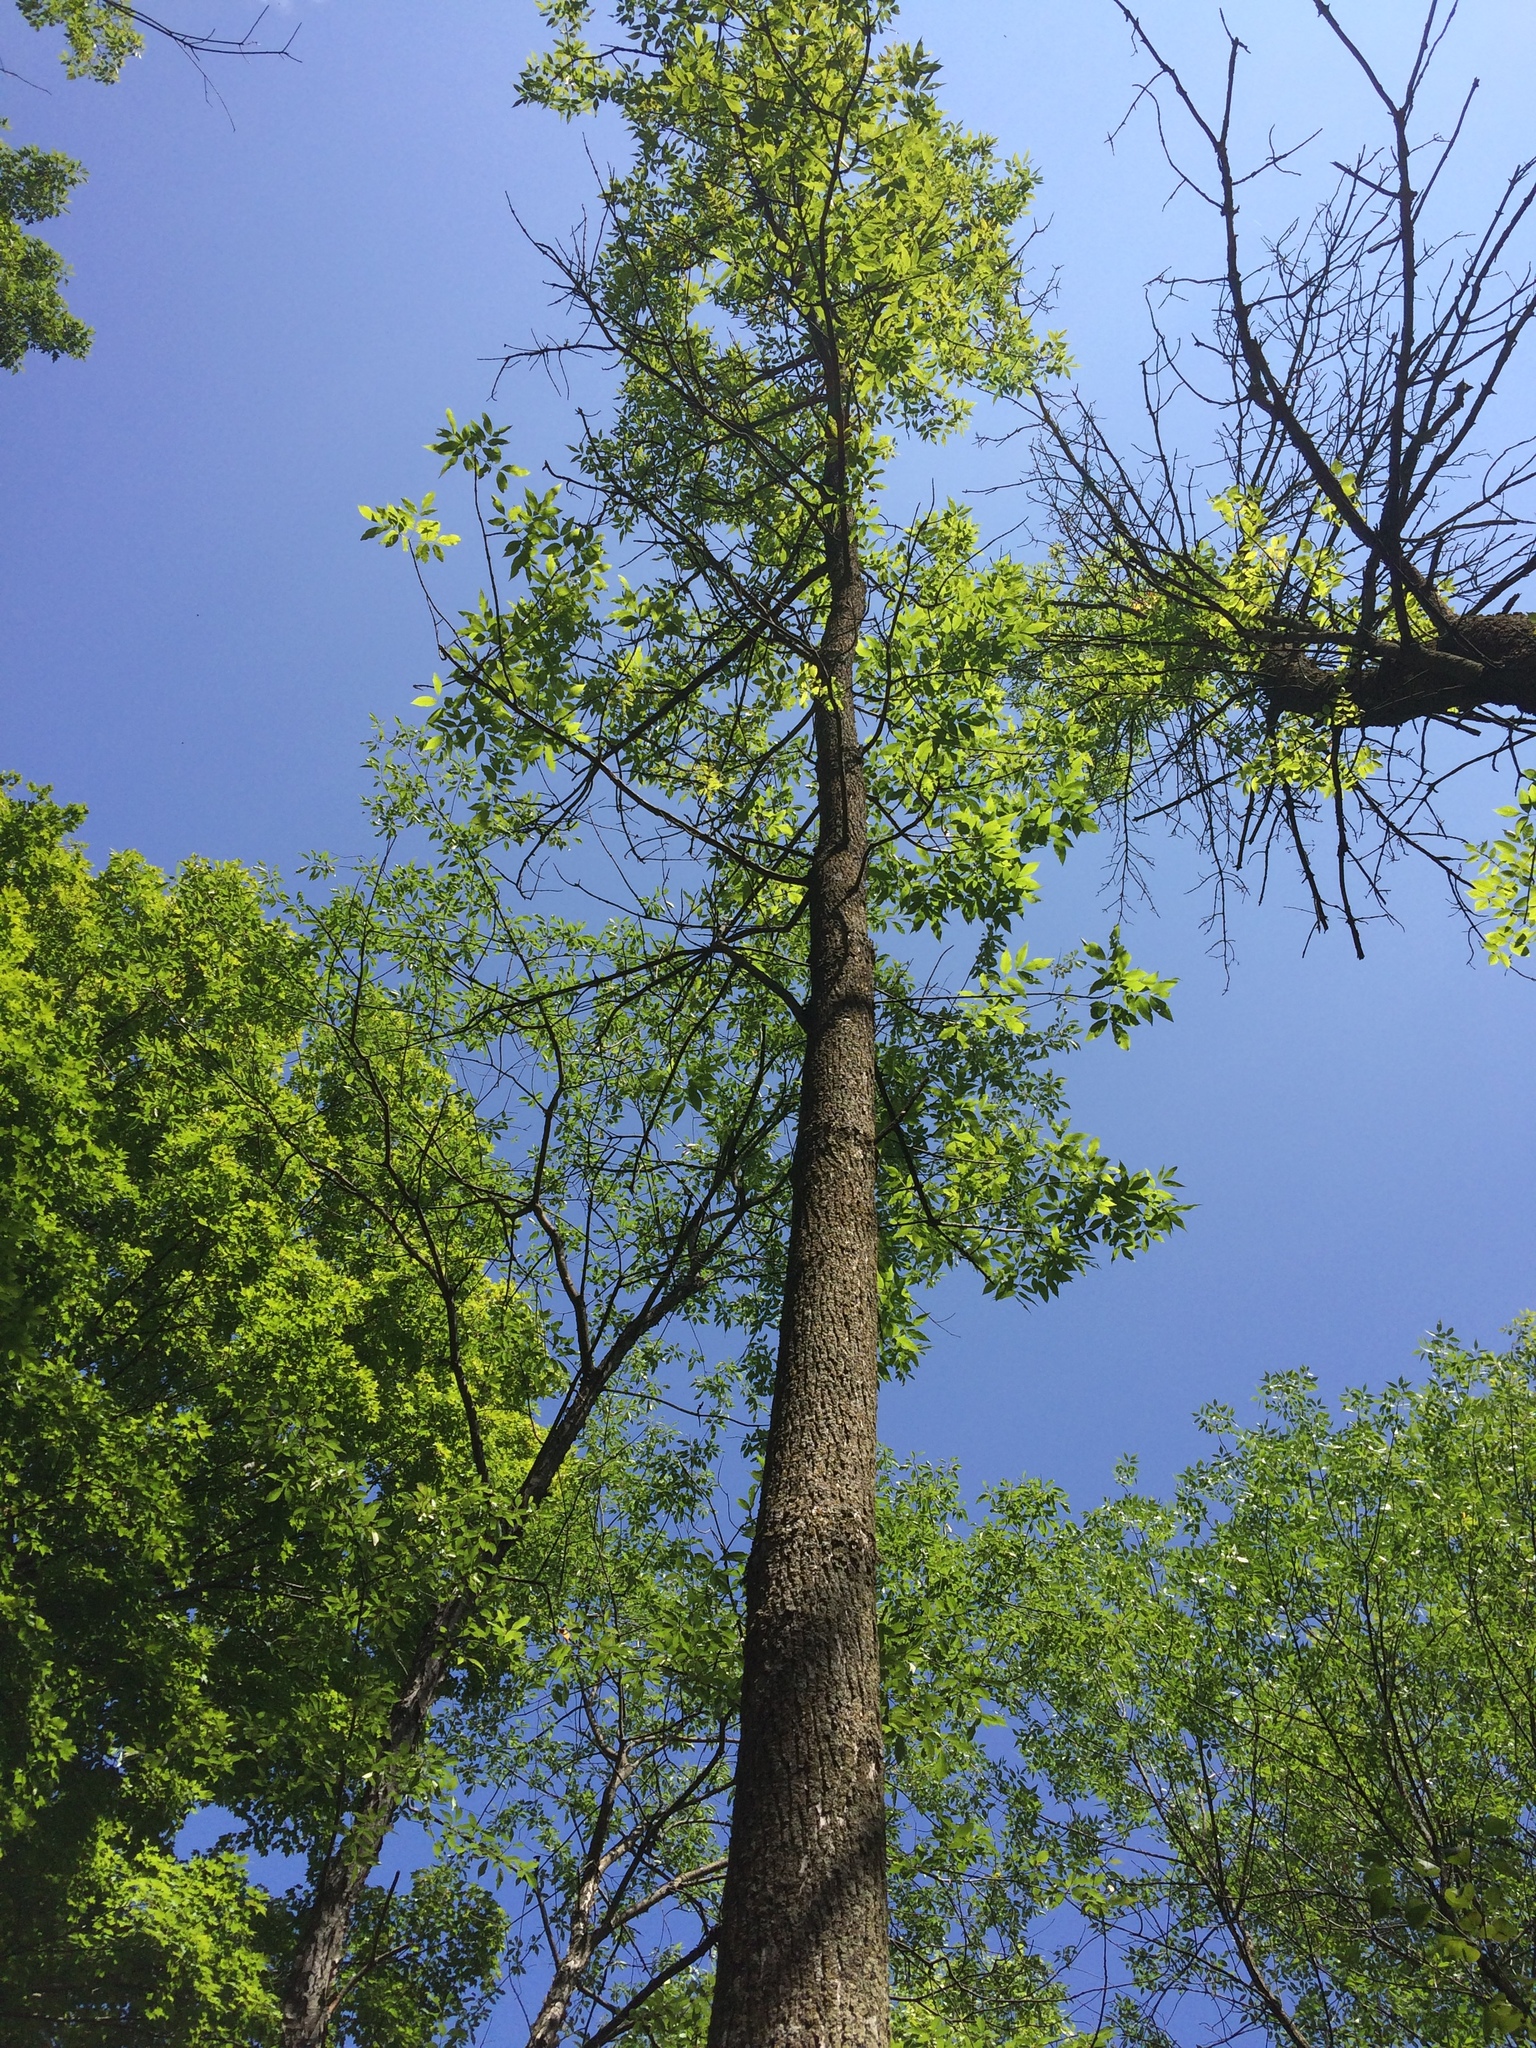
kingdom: Plantae
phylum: Tracheophyta
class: Magnoliopsida
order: Lamiales
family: Oleaceae
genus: Fraxinus
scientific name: Fraxinus americana
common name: White ash
